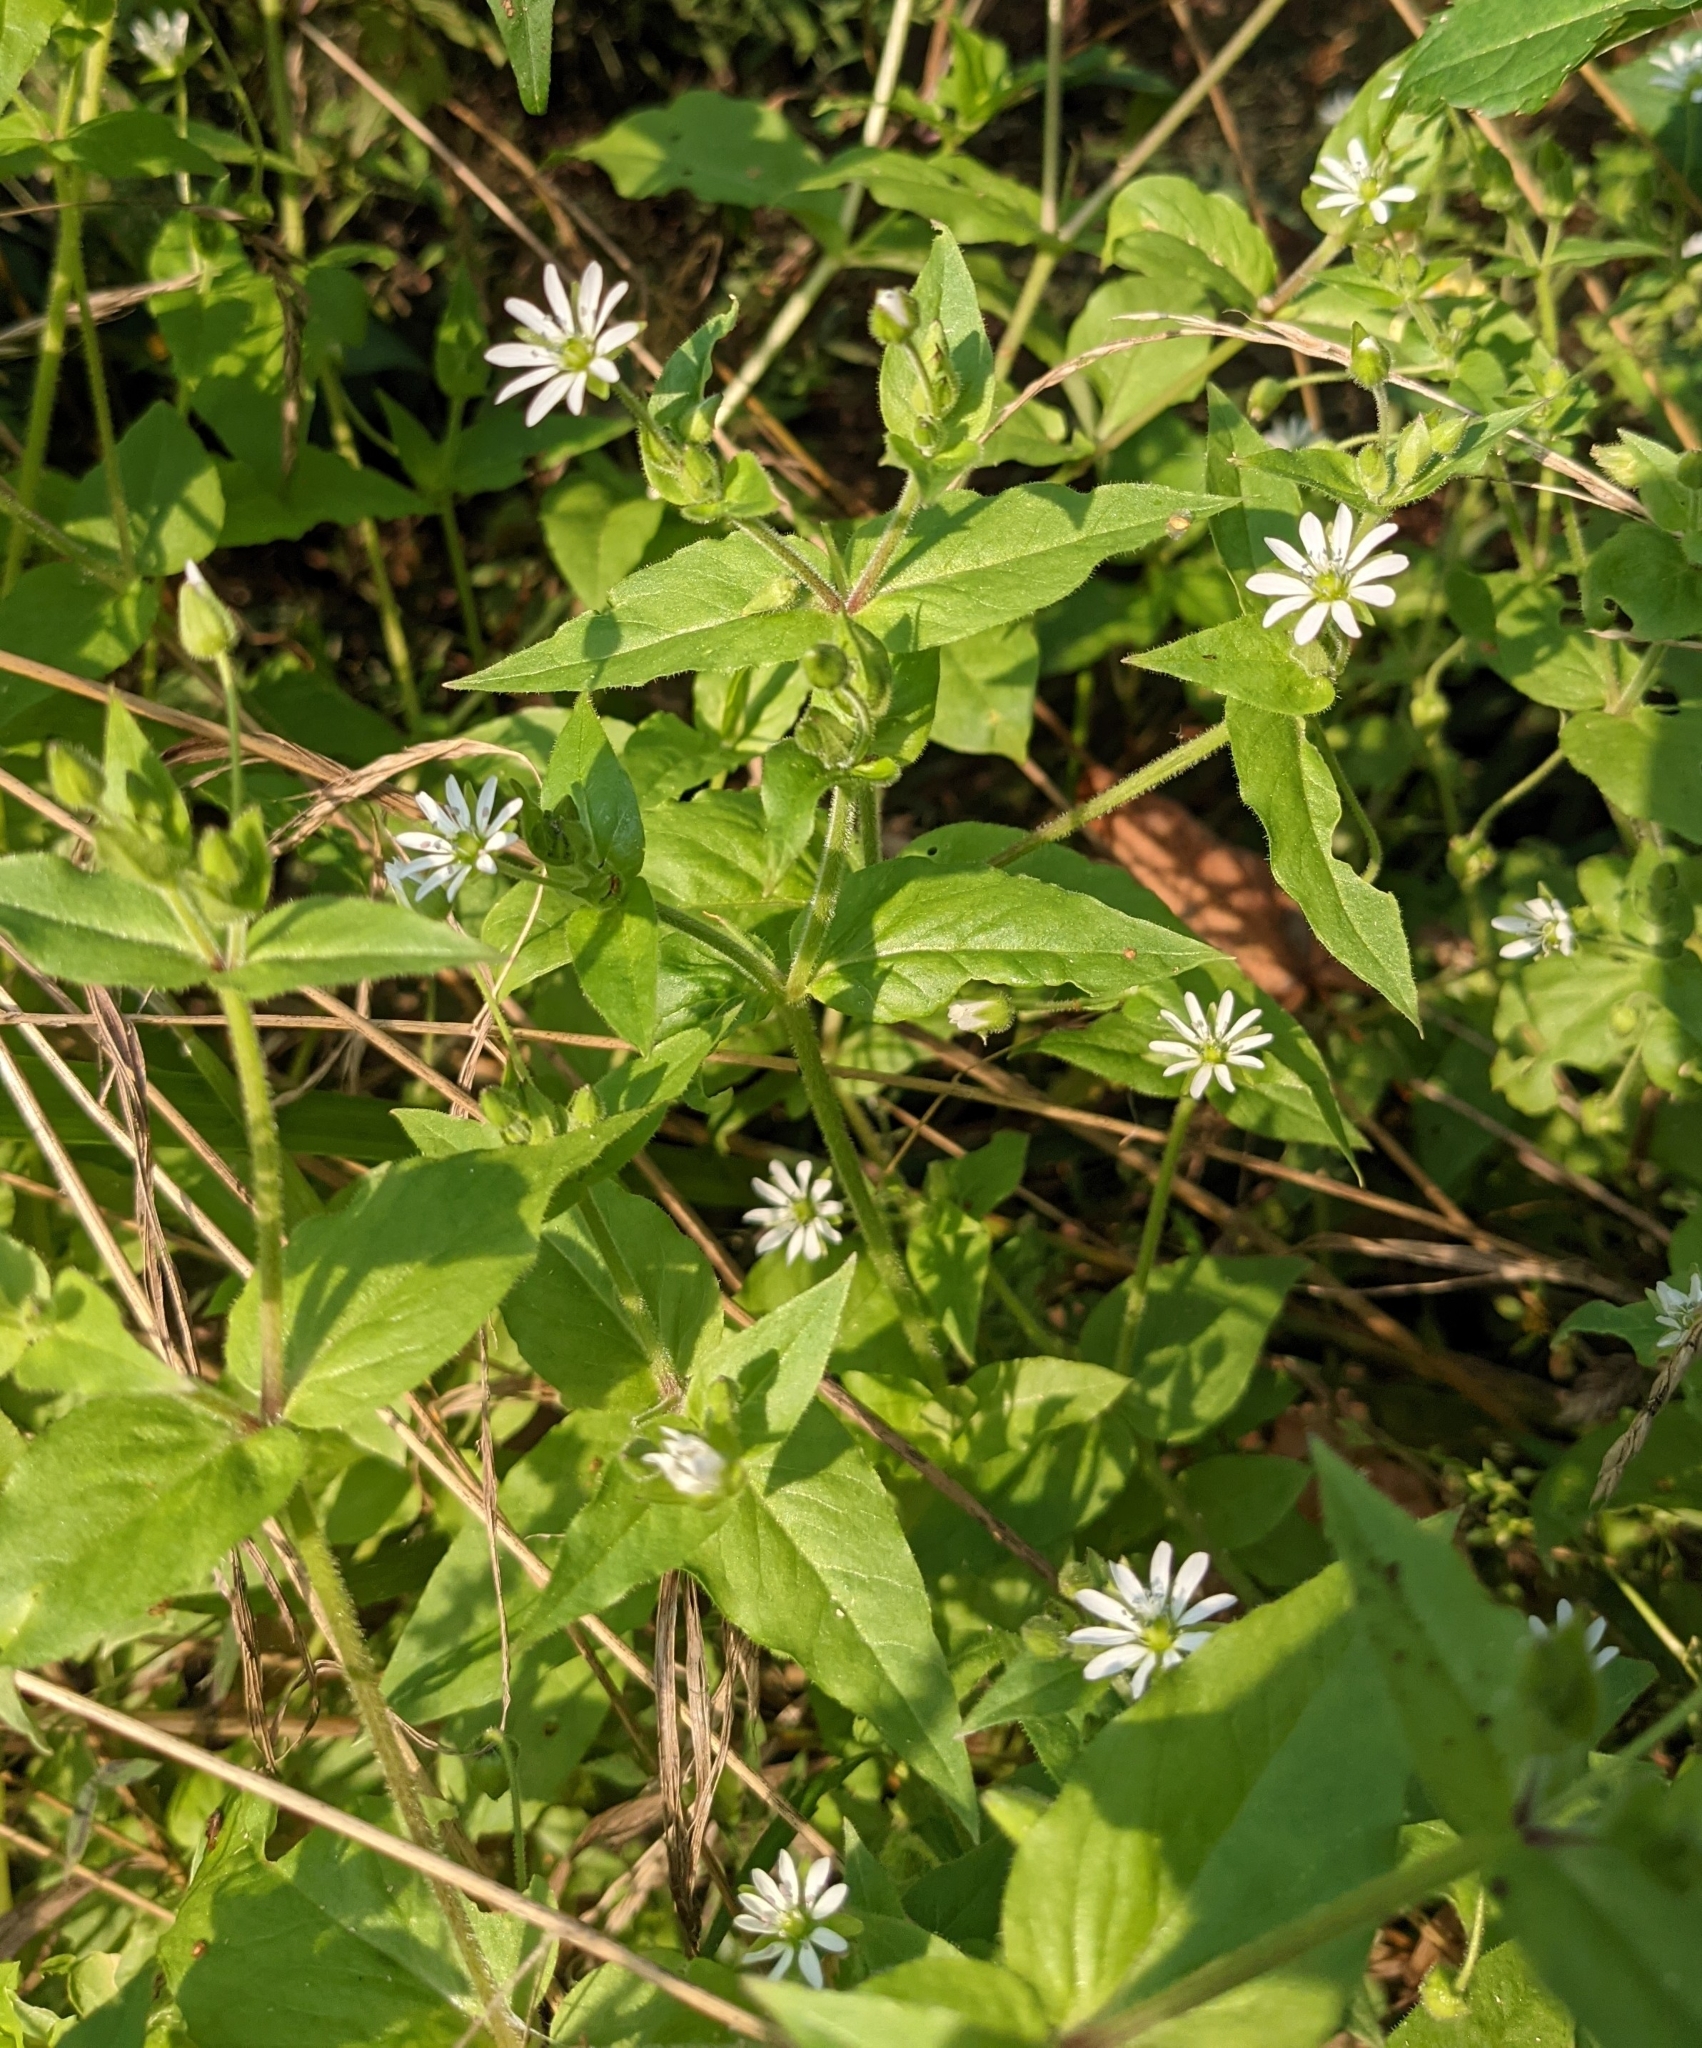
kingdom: Plantae
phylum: Tracheophyta
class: Magnoliopsida
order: Caryophyllales
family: Caryophyllaceae
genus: Stellaria
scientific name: Stellaria aquatica
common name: Water chickweed
